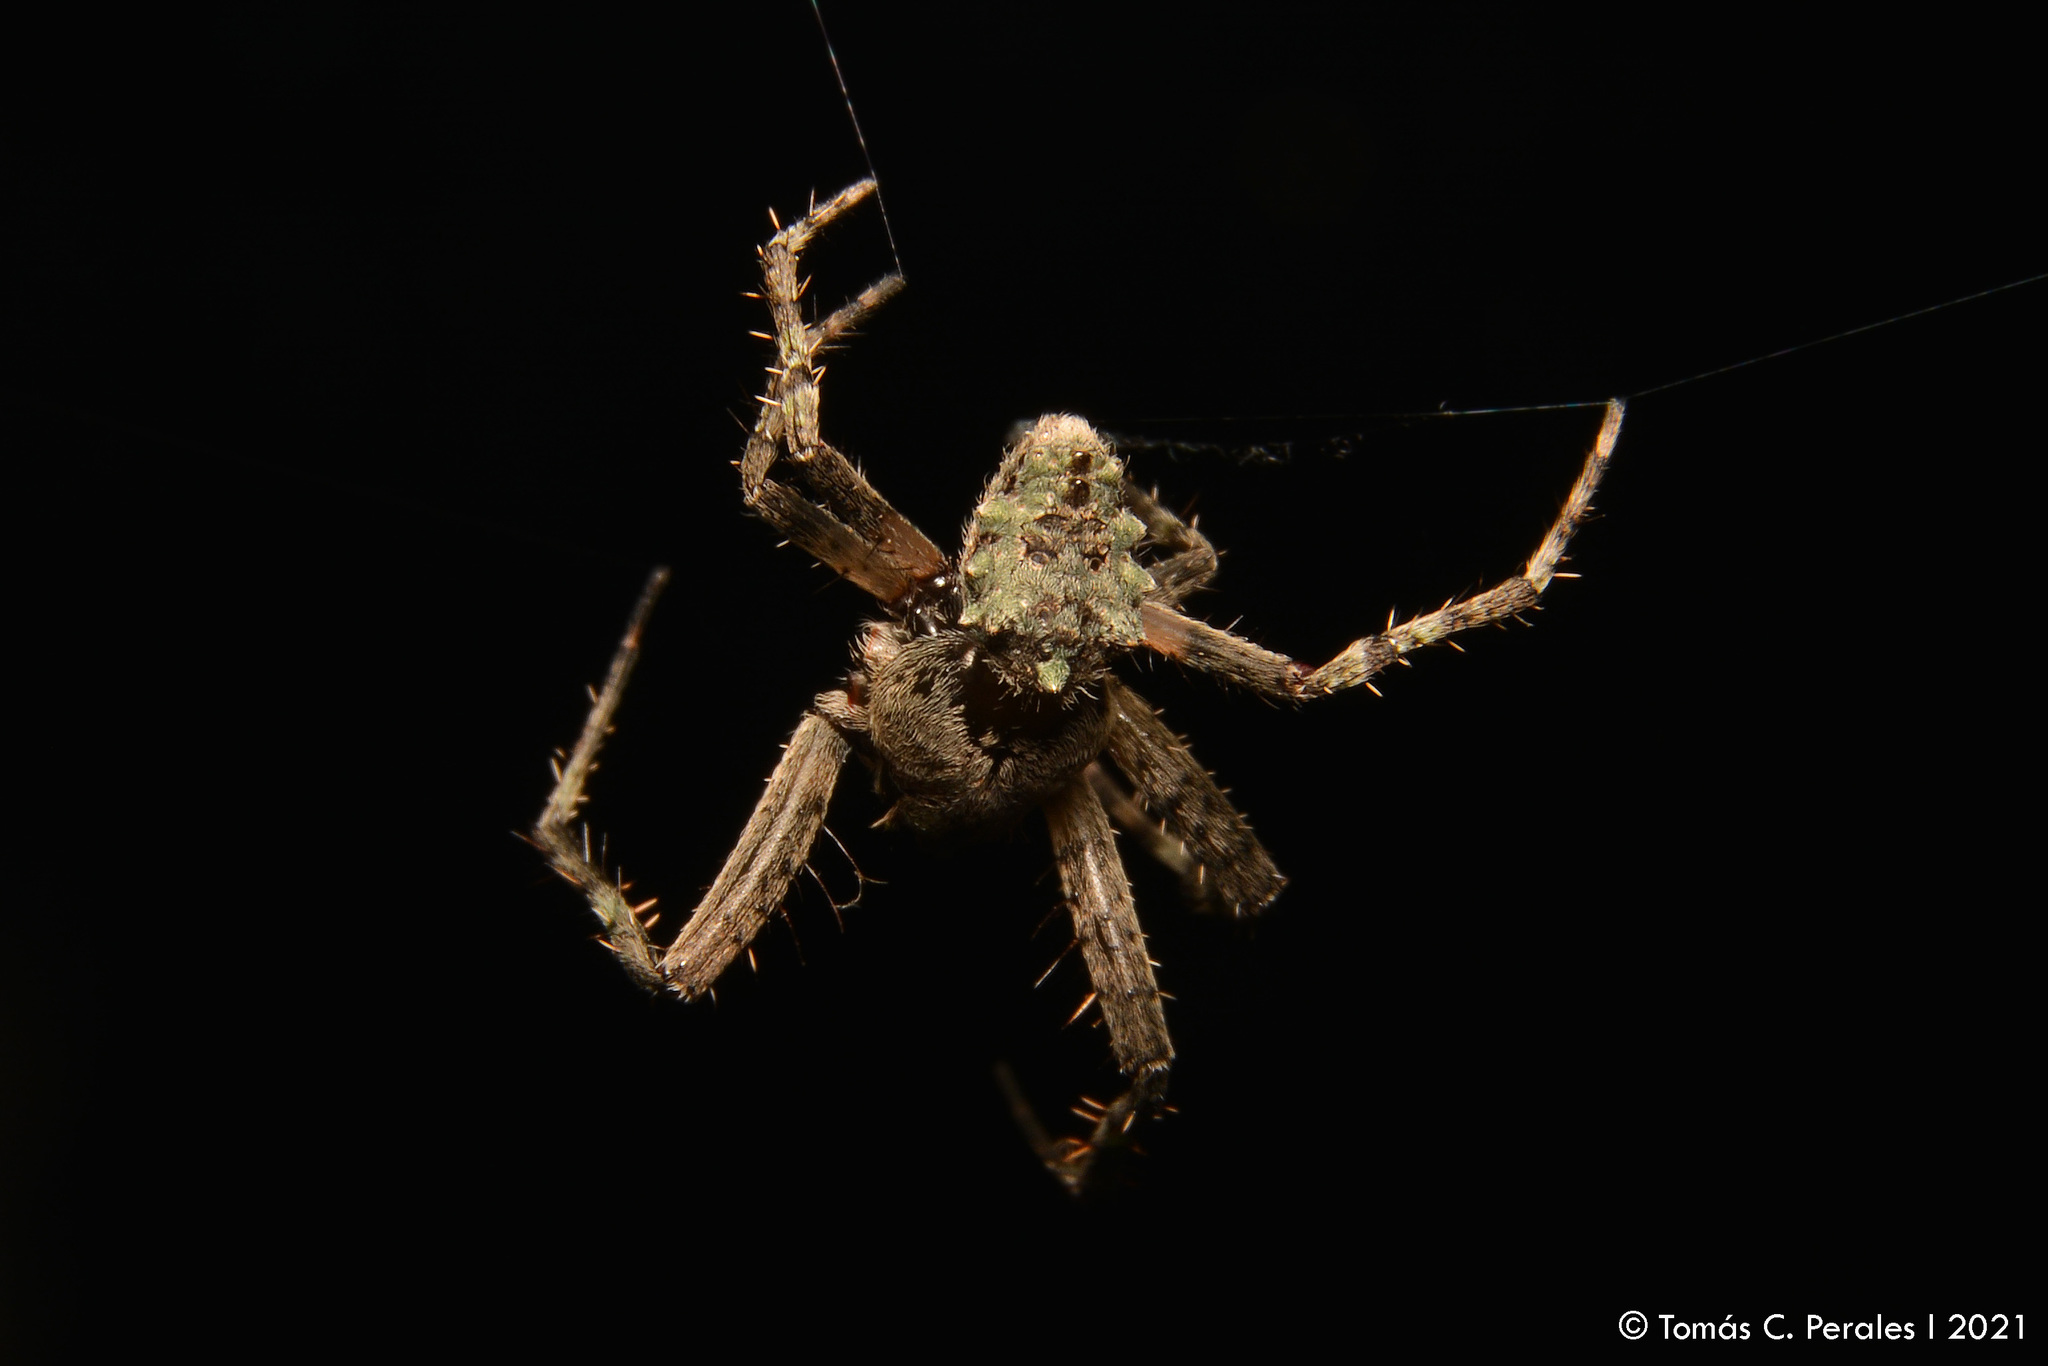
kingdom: Animalia
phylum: Arthropoda
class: Arachnida
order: Araneae
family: Araneidae
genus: Parawixia
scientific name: Parawixia audax
